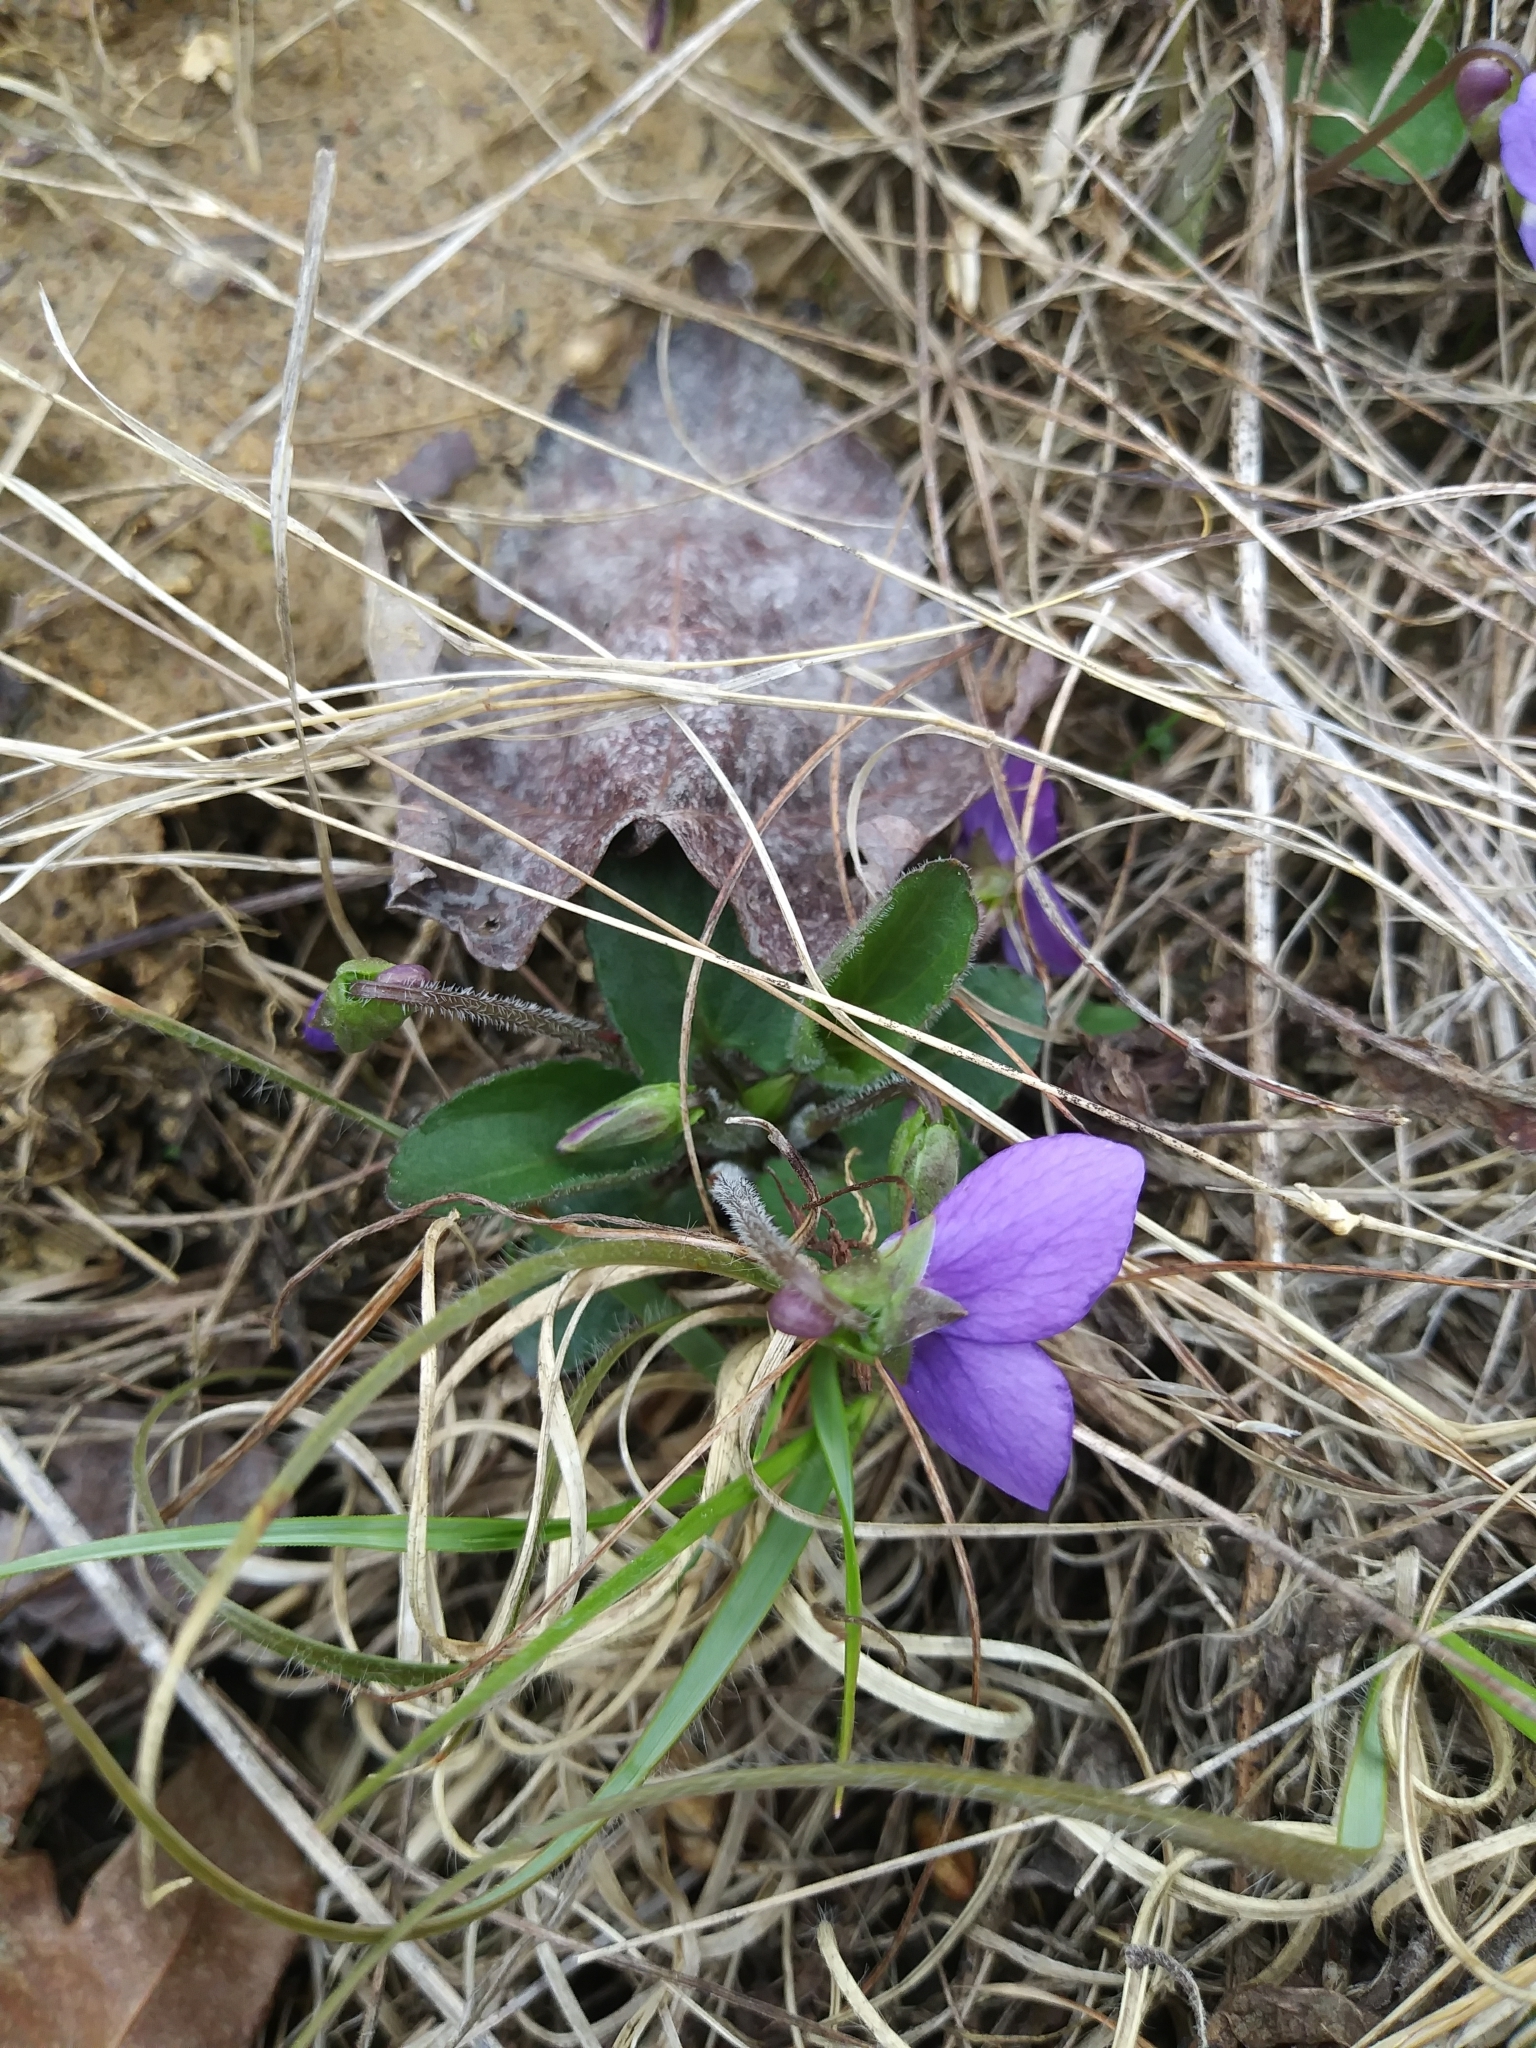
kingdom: Plantae
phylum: Tracheophyta
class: Magnoliopsida
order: Malpighiales
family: Violaceae
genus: Viola
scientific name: Viola sagittata
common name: Arrowhead violet
